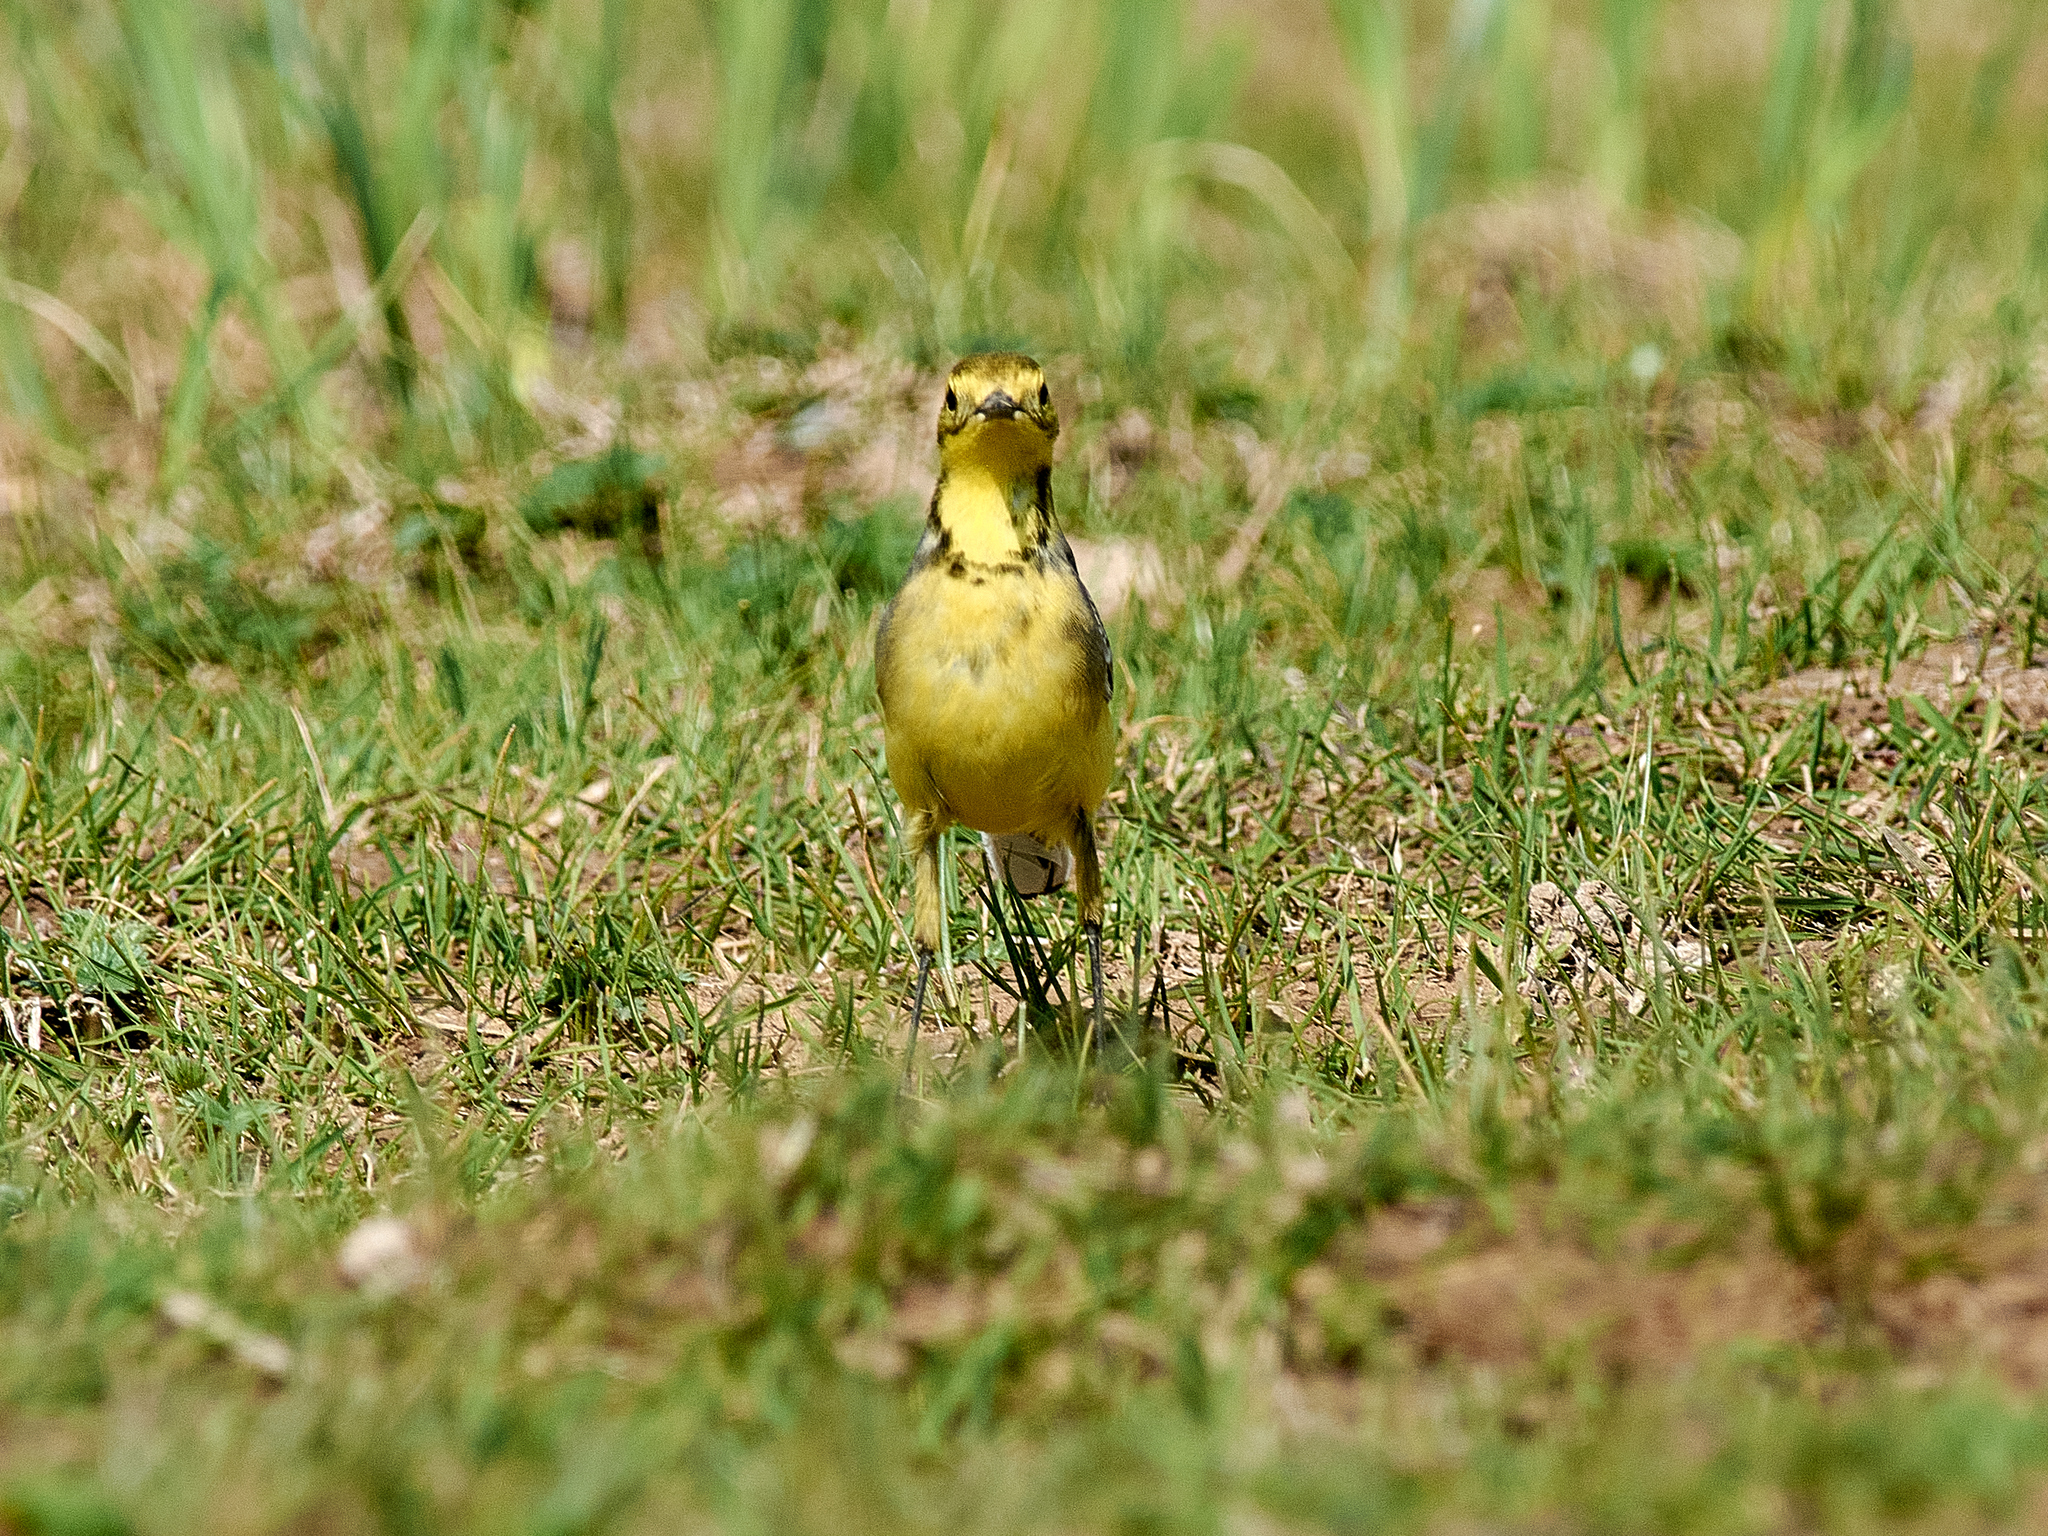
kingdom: Animalia
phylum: Chordata
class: Aves
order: Passeriformes
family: Motacillidae
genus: Motacilla
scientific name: Motacilla citreola
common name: Citrine wagtail
